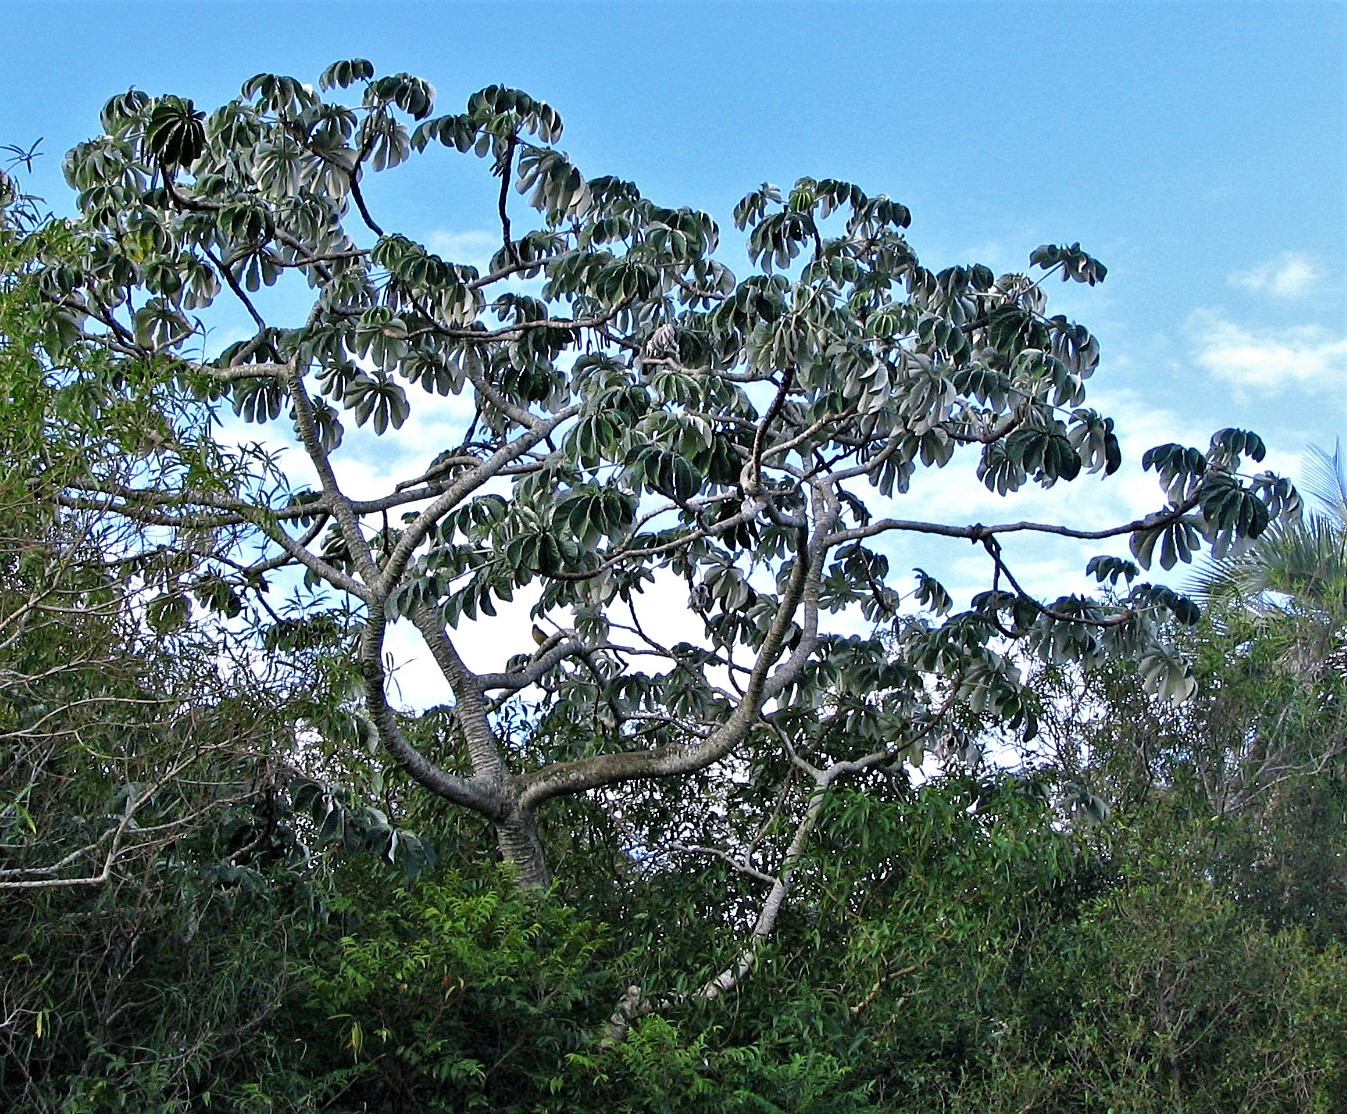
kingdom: Plantae
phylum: Tracheophyta
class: Magnoliopsida
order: Rosales
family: Urticaceae
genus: Cecropia
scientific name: Cecropia pachystachya
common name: Ambay pumpwood
